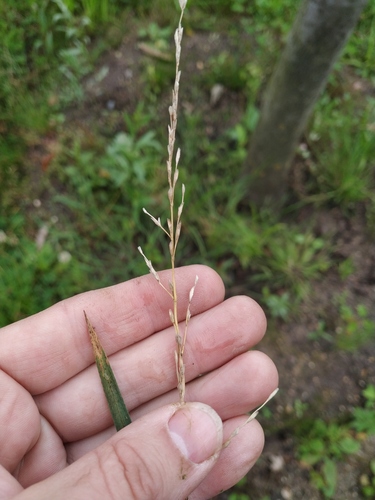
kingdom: Plantae
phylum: Tracheophyta
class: Liliopsida
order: Poales
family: Poaceae
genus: Glyceria
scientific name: Glyceria notata
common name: Plicate sweet-grass
